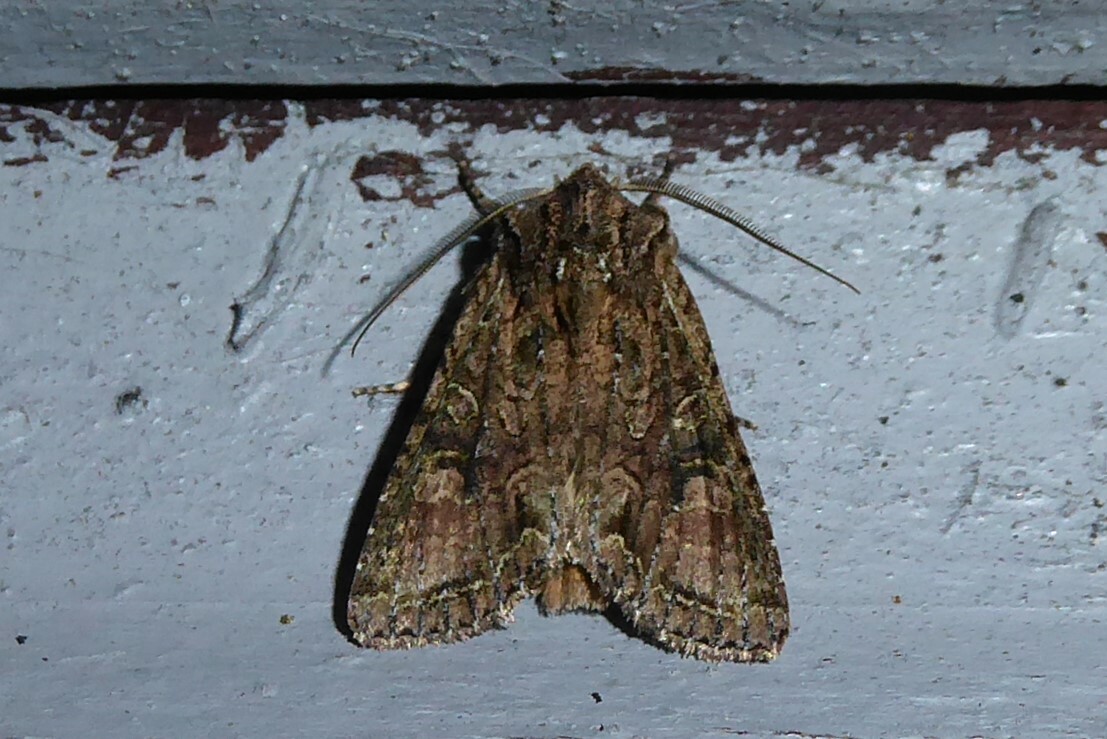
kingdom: Animalia
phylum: Arthropoda
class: Insecta
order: Lepidoptera
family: Noctuidae
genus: Ichneutica
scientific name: Ichneutica mutans
